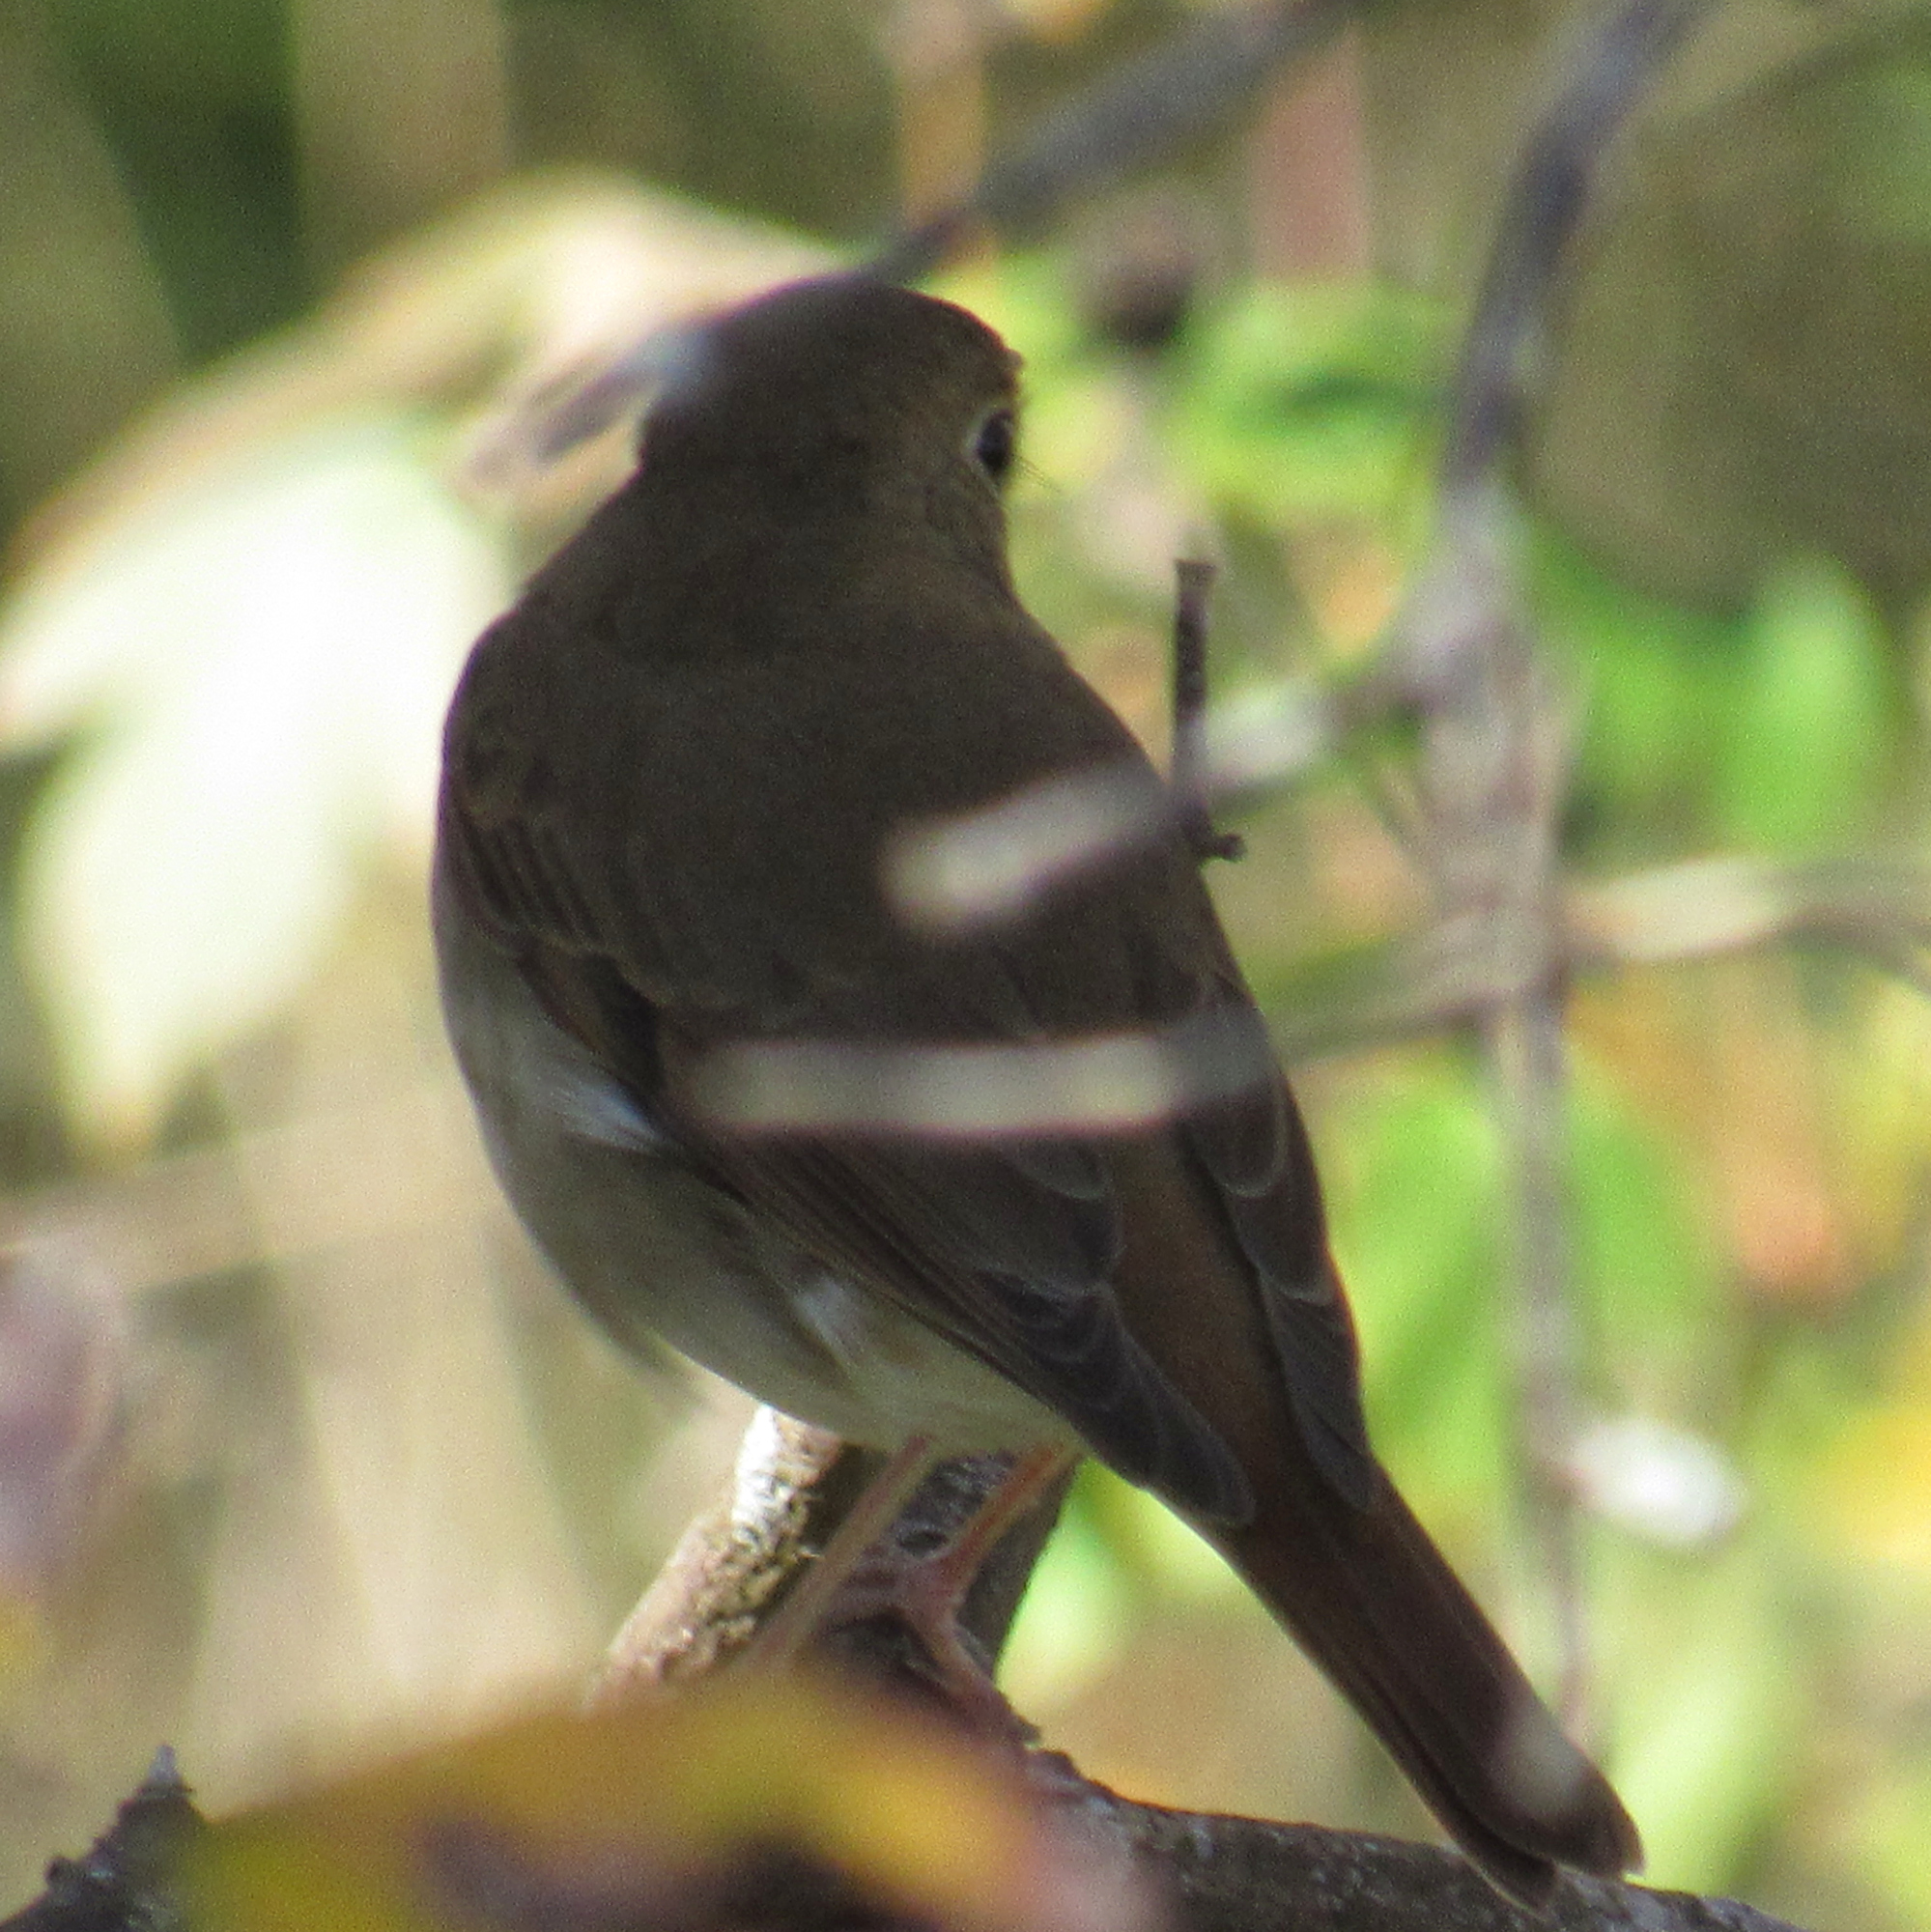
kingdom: Animalia
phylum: Chordata
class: Aves
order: Passeriformes
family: Turdidae
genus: Catharus
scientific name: Catharus guttatus
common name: Hermit thrush
